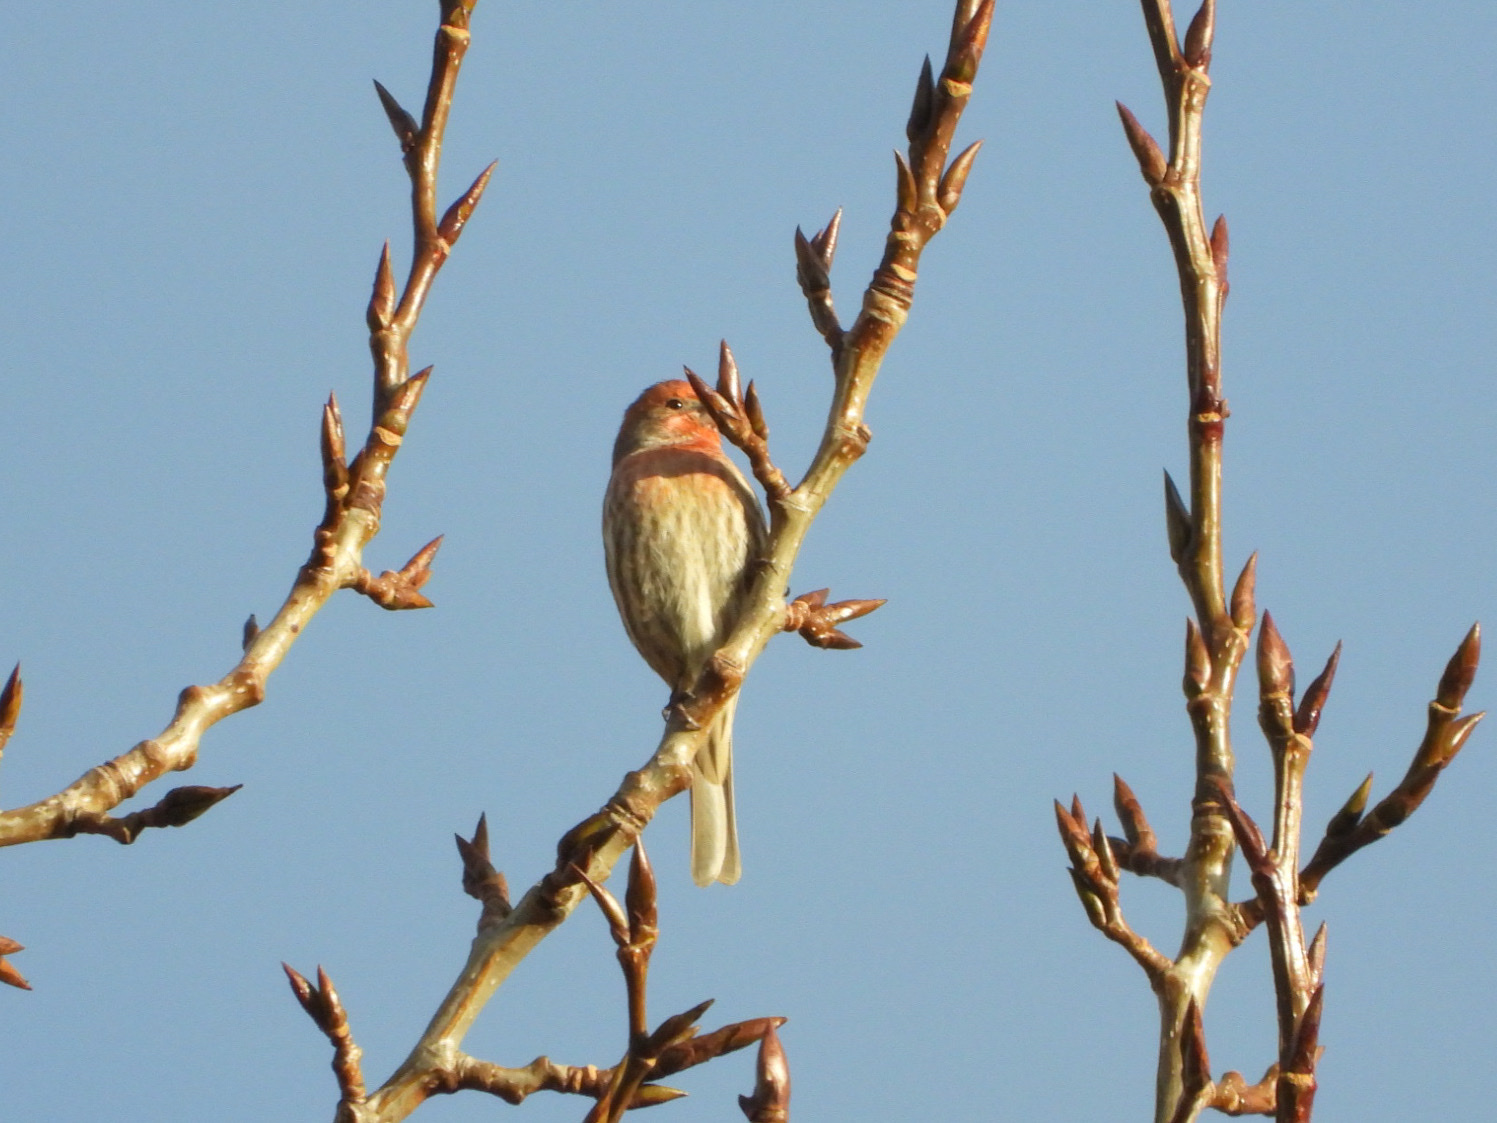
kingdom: Animalia
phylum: Chordata
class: Aves
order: Passeriformes
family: Fringillidae
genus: Haemorhous
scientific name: Haemorhous mexicanus
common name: House finch
